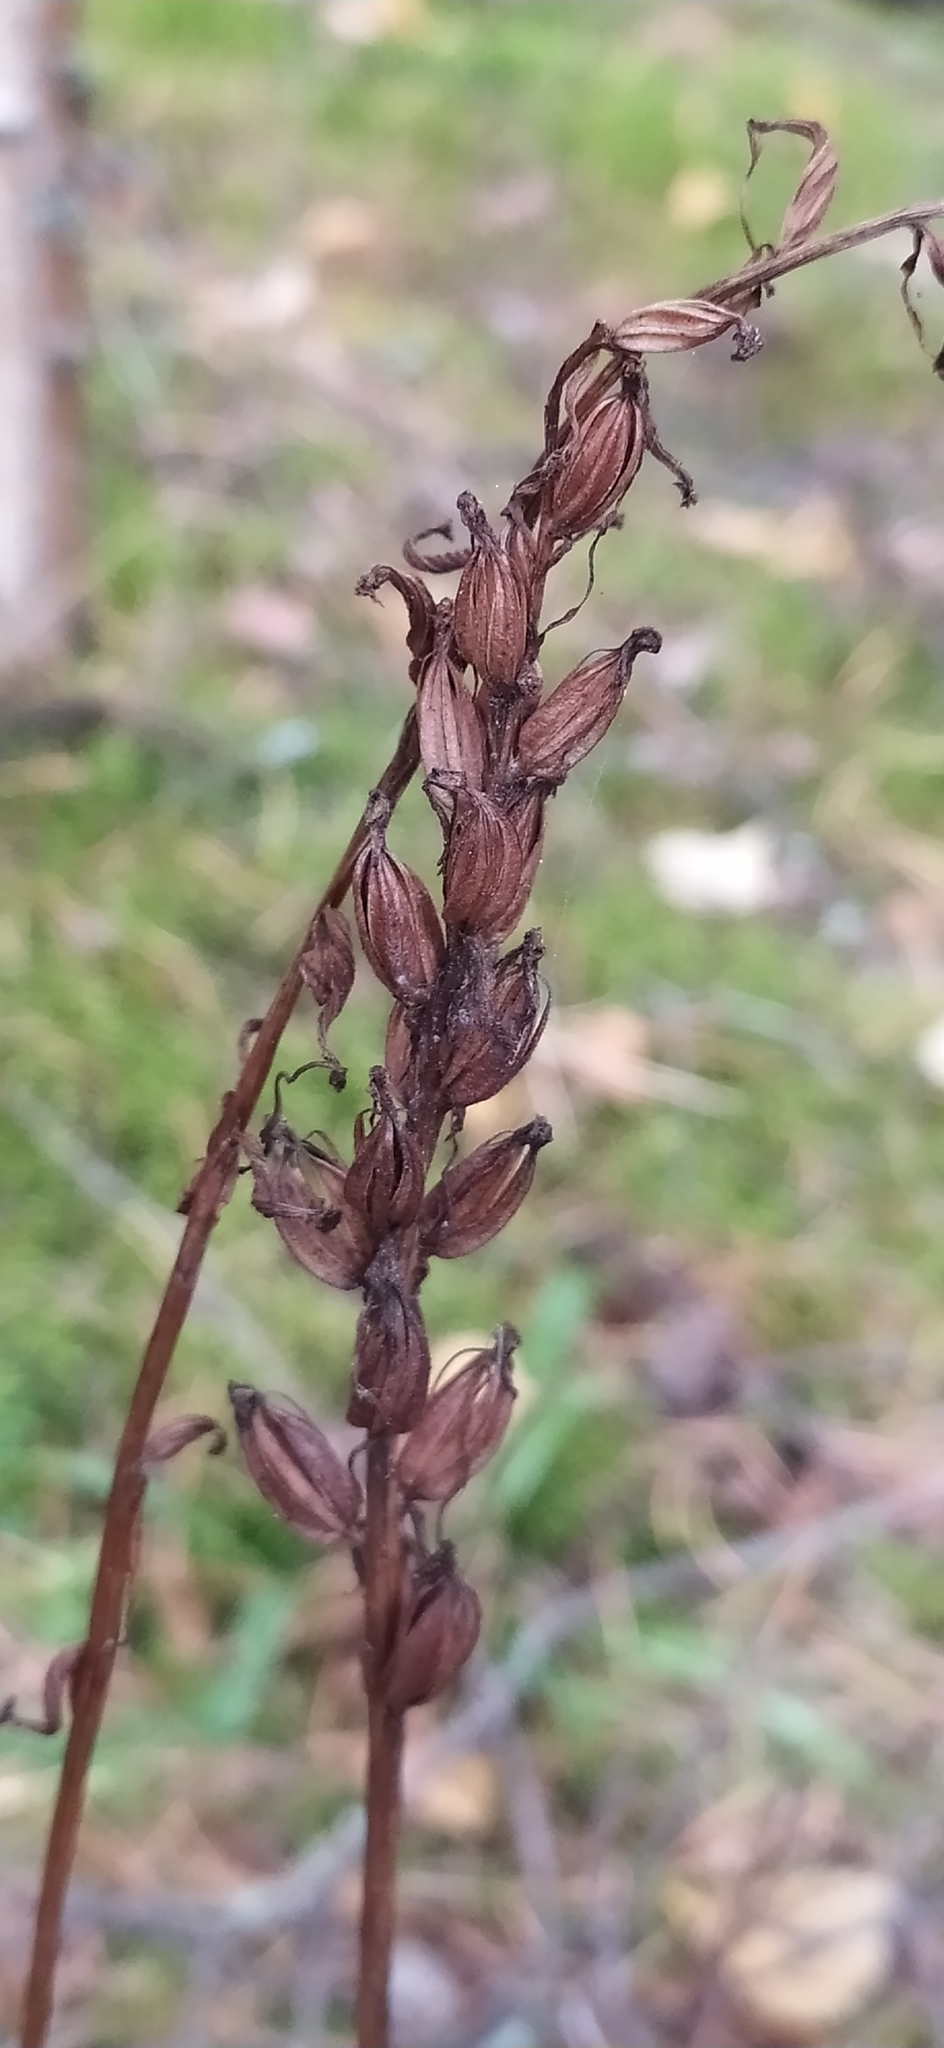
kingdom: Plantae
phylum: Tracheophyta
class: Liliopsida
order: Asparagales
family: Orchidaceae
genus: Dactylorhiza
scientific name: Dactylorhiza maculata
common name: Heath spotted-orchid
